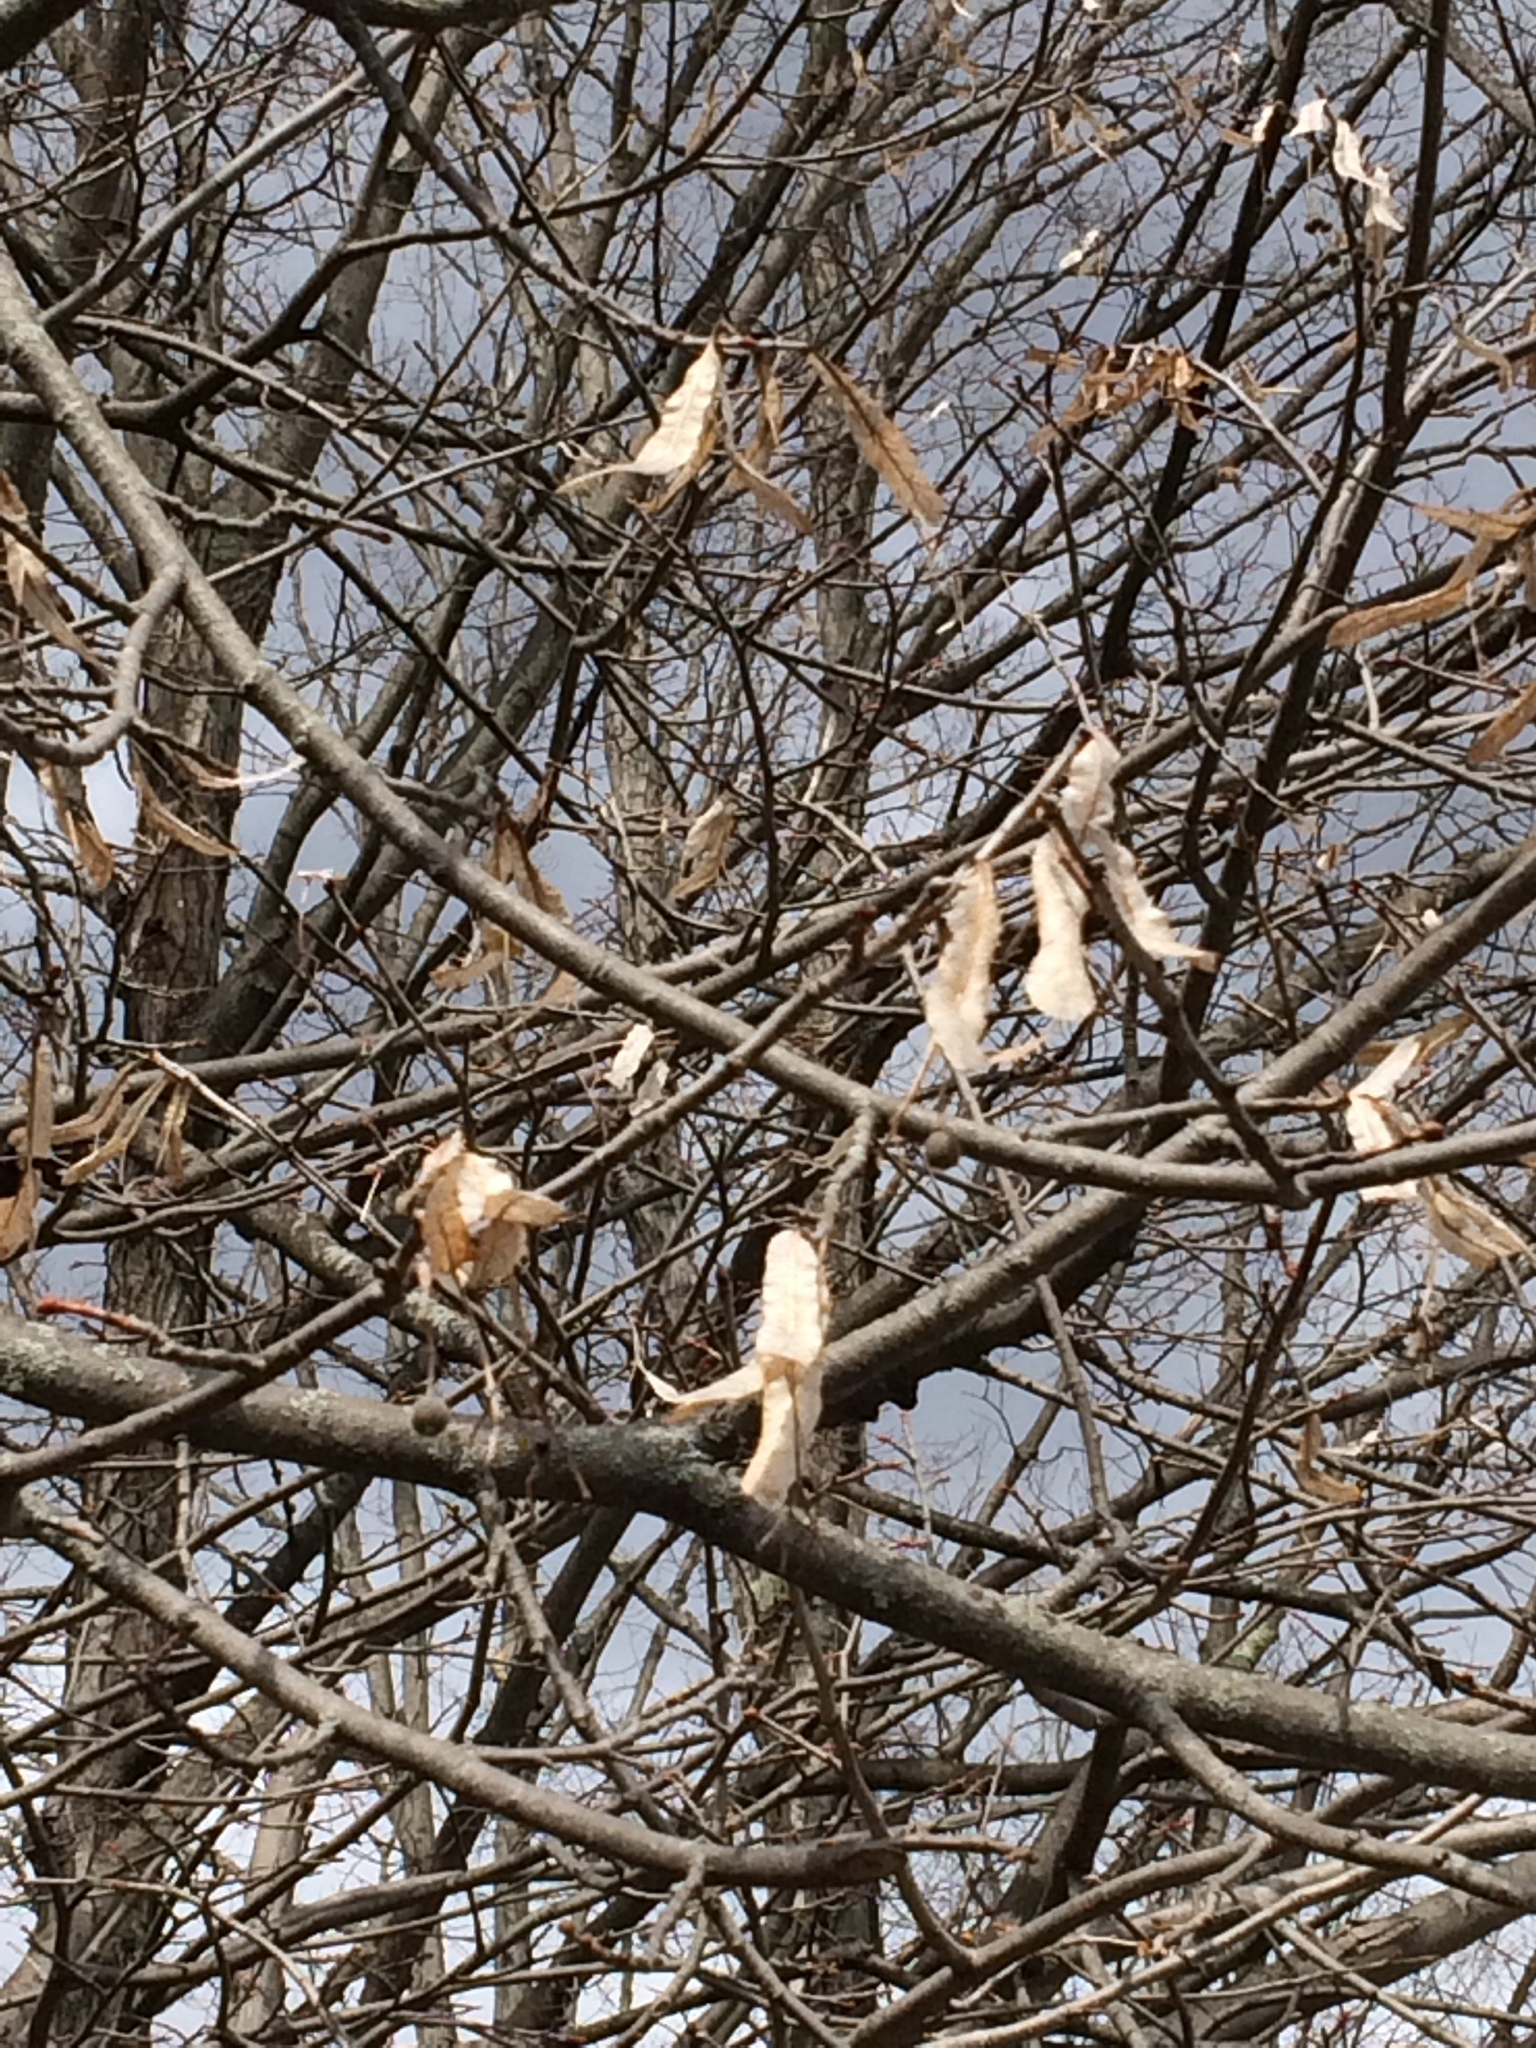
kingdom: Plantae
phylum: Tracheophyta
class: Magnoliopsida
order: Malvales
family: Malvaceae
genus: Tilia
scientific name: Tilia americana
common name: Basswood
